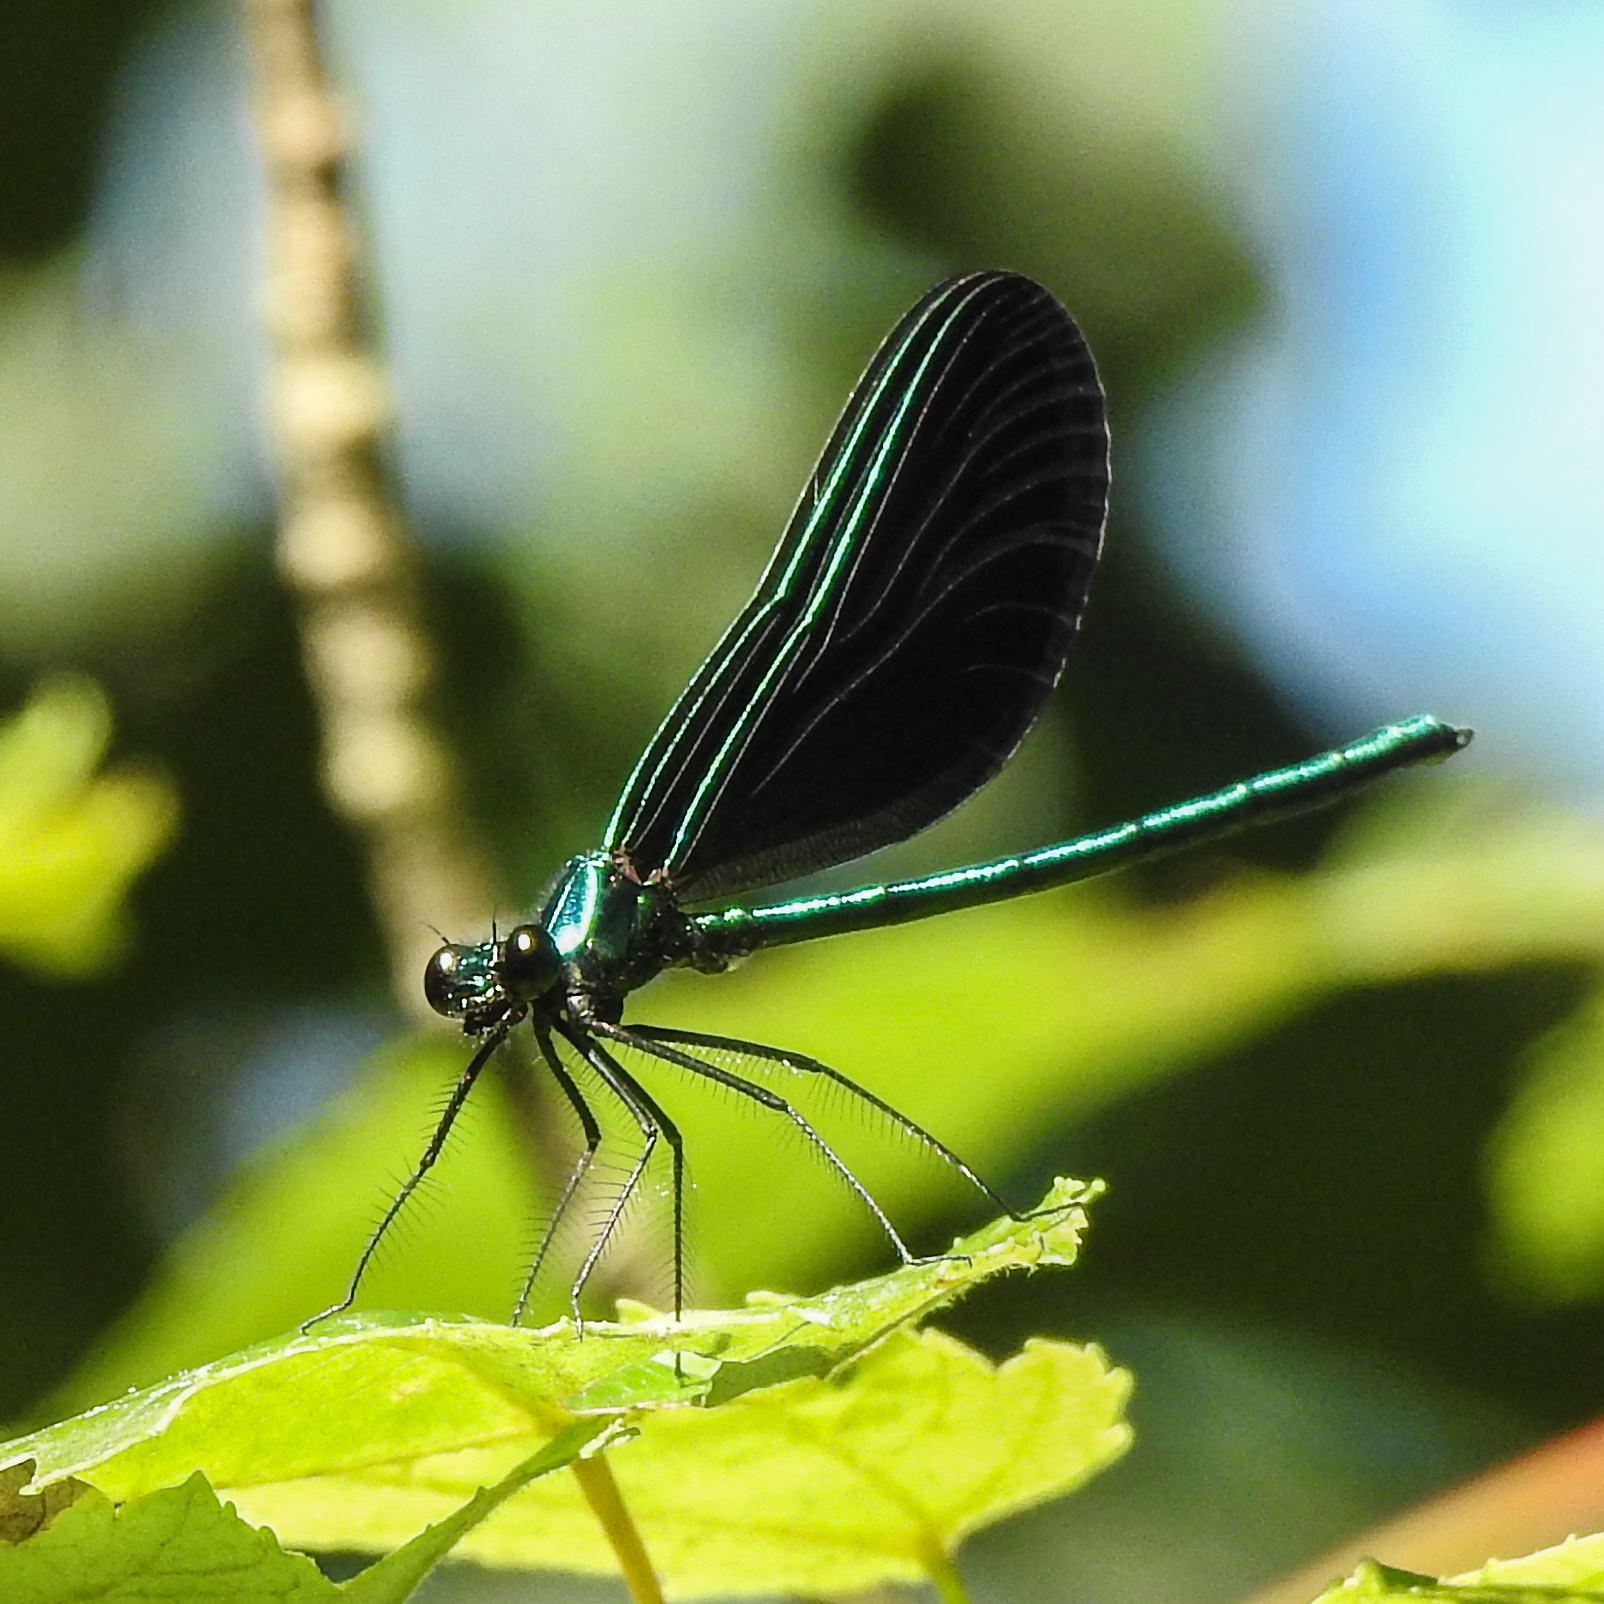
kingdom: Animalia
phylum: Arthropoda
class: Insecta
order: Odonata
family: Calopterygidae
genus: Calopteryx
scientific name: Calopteryx maculata
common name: Ebony jewelwing
